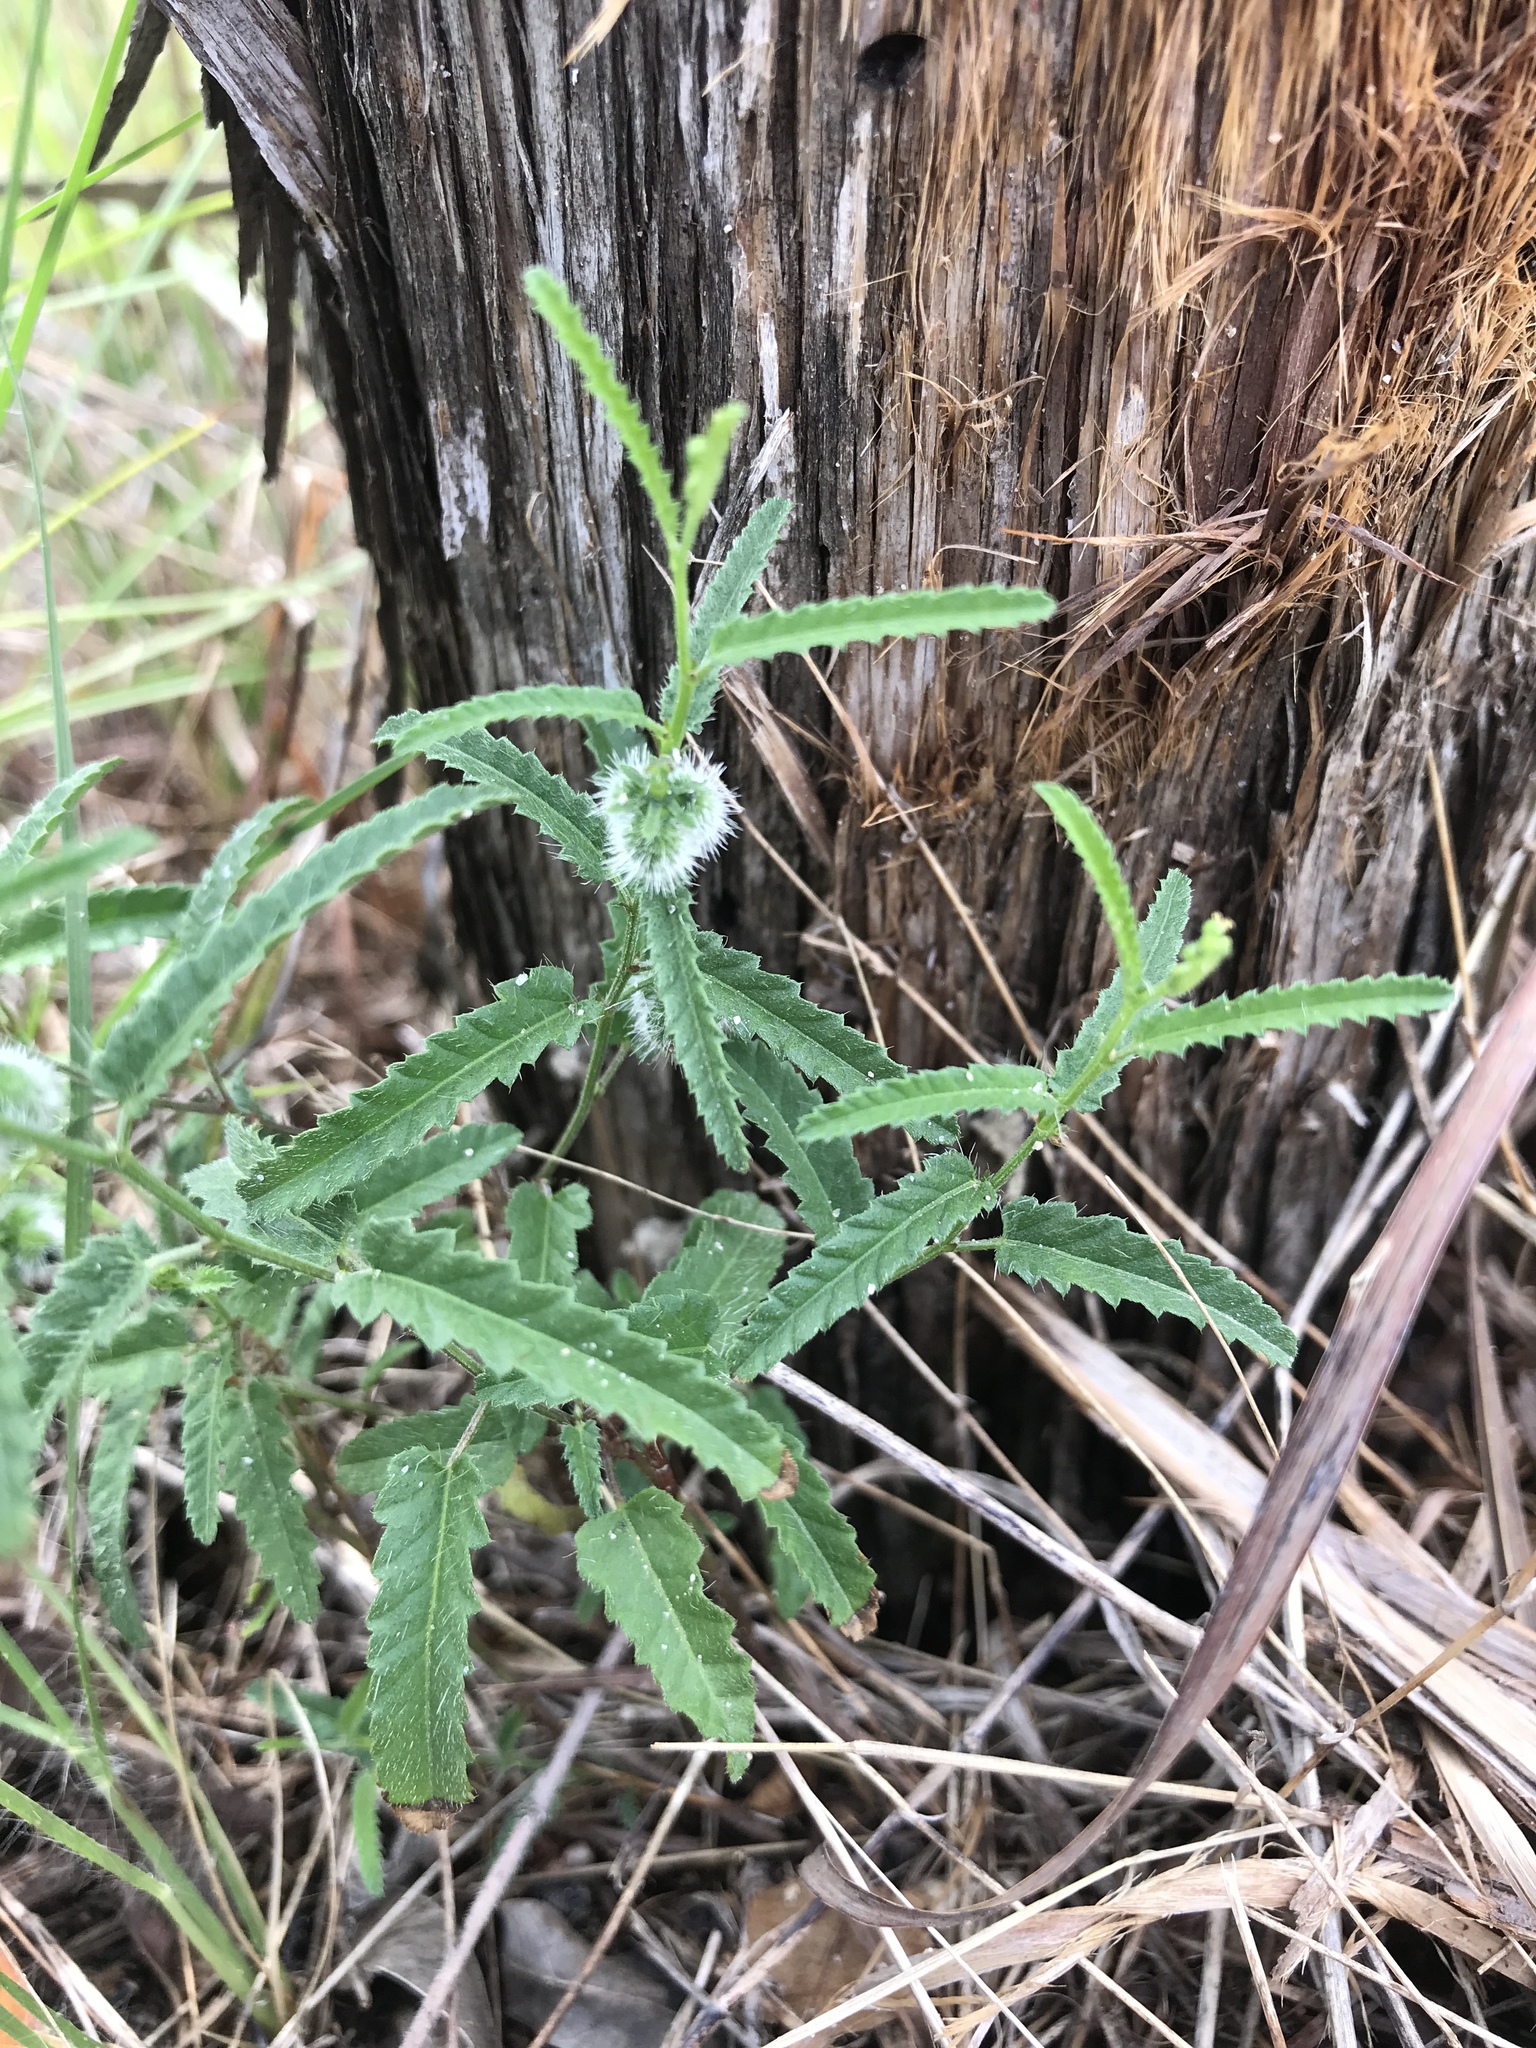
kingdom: Plantae
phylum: Tracheophyta
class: Magnoliopsida
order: Malpighiales
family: Euphorbiaceae
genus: Tragia
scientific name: Tragia ramosa
